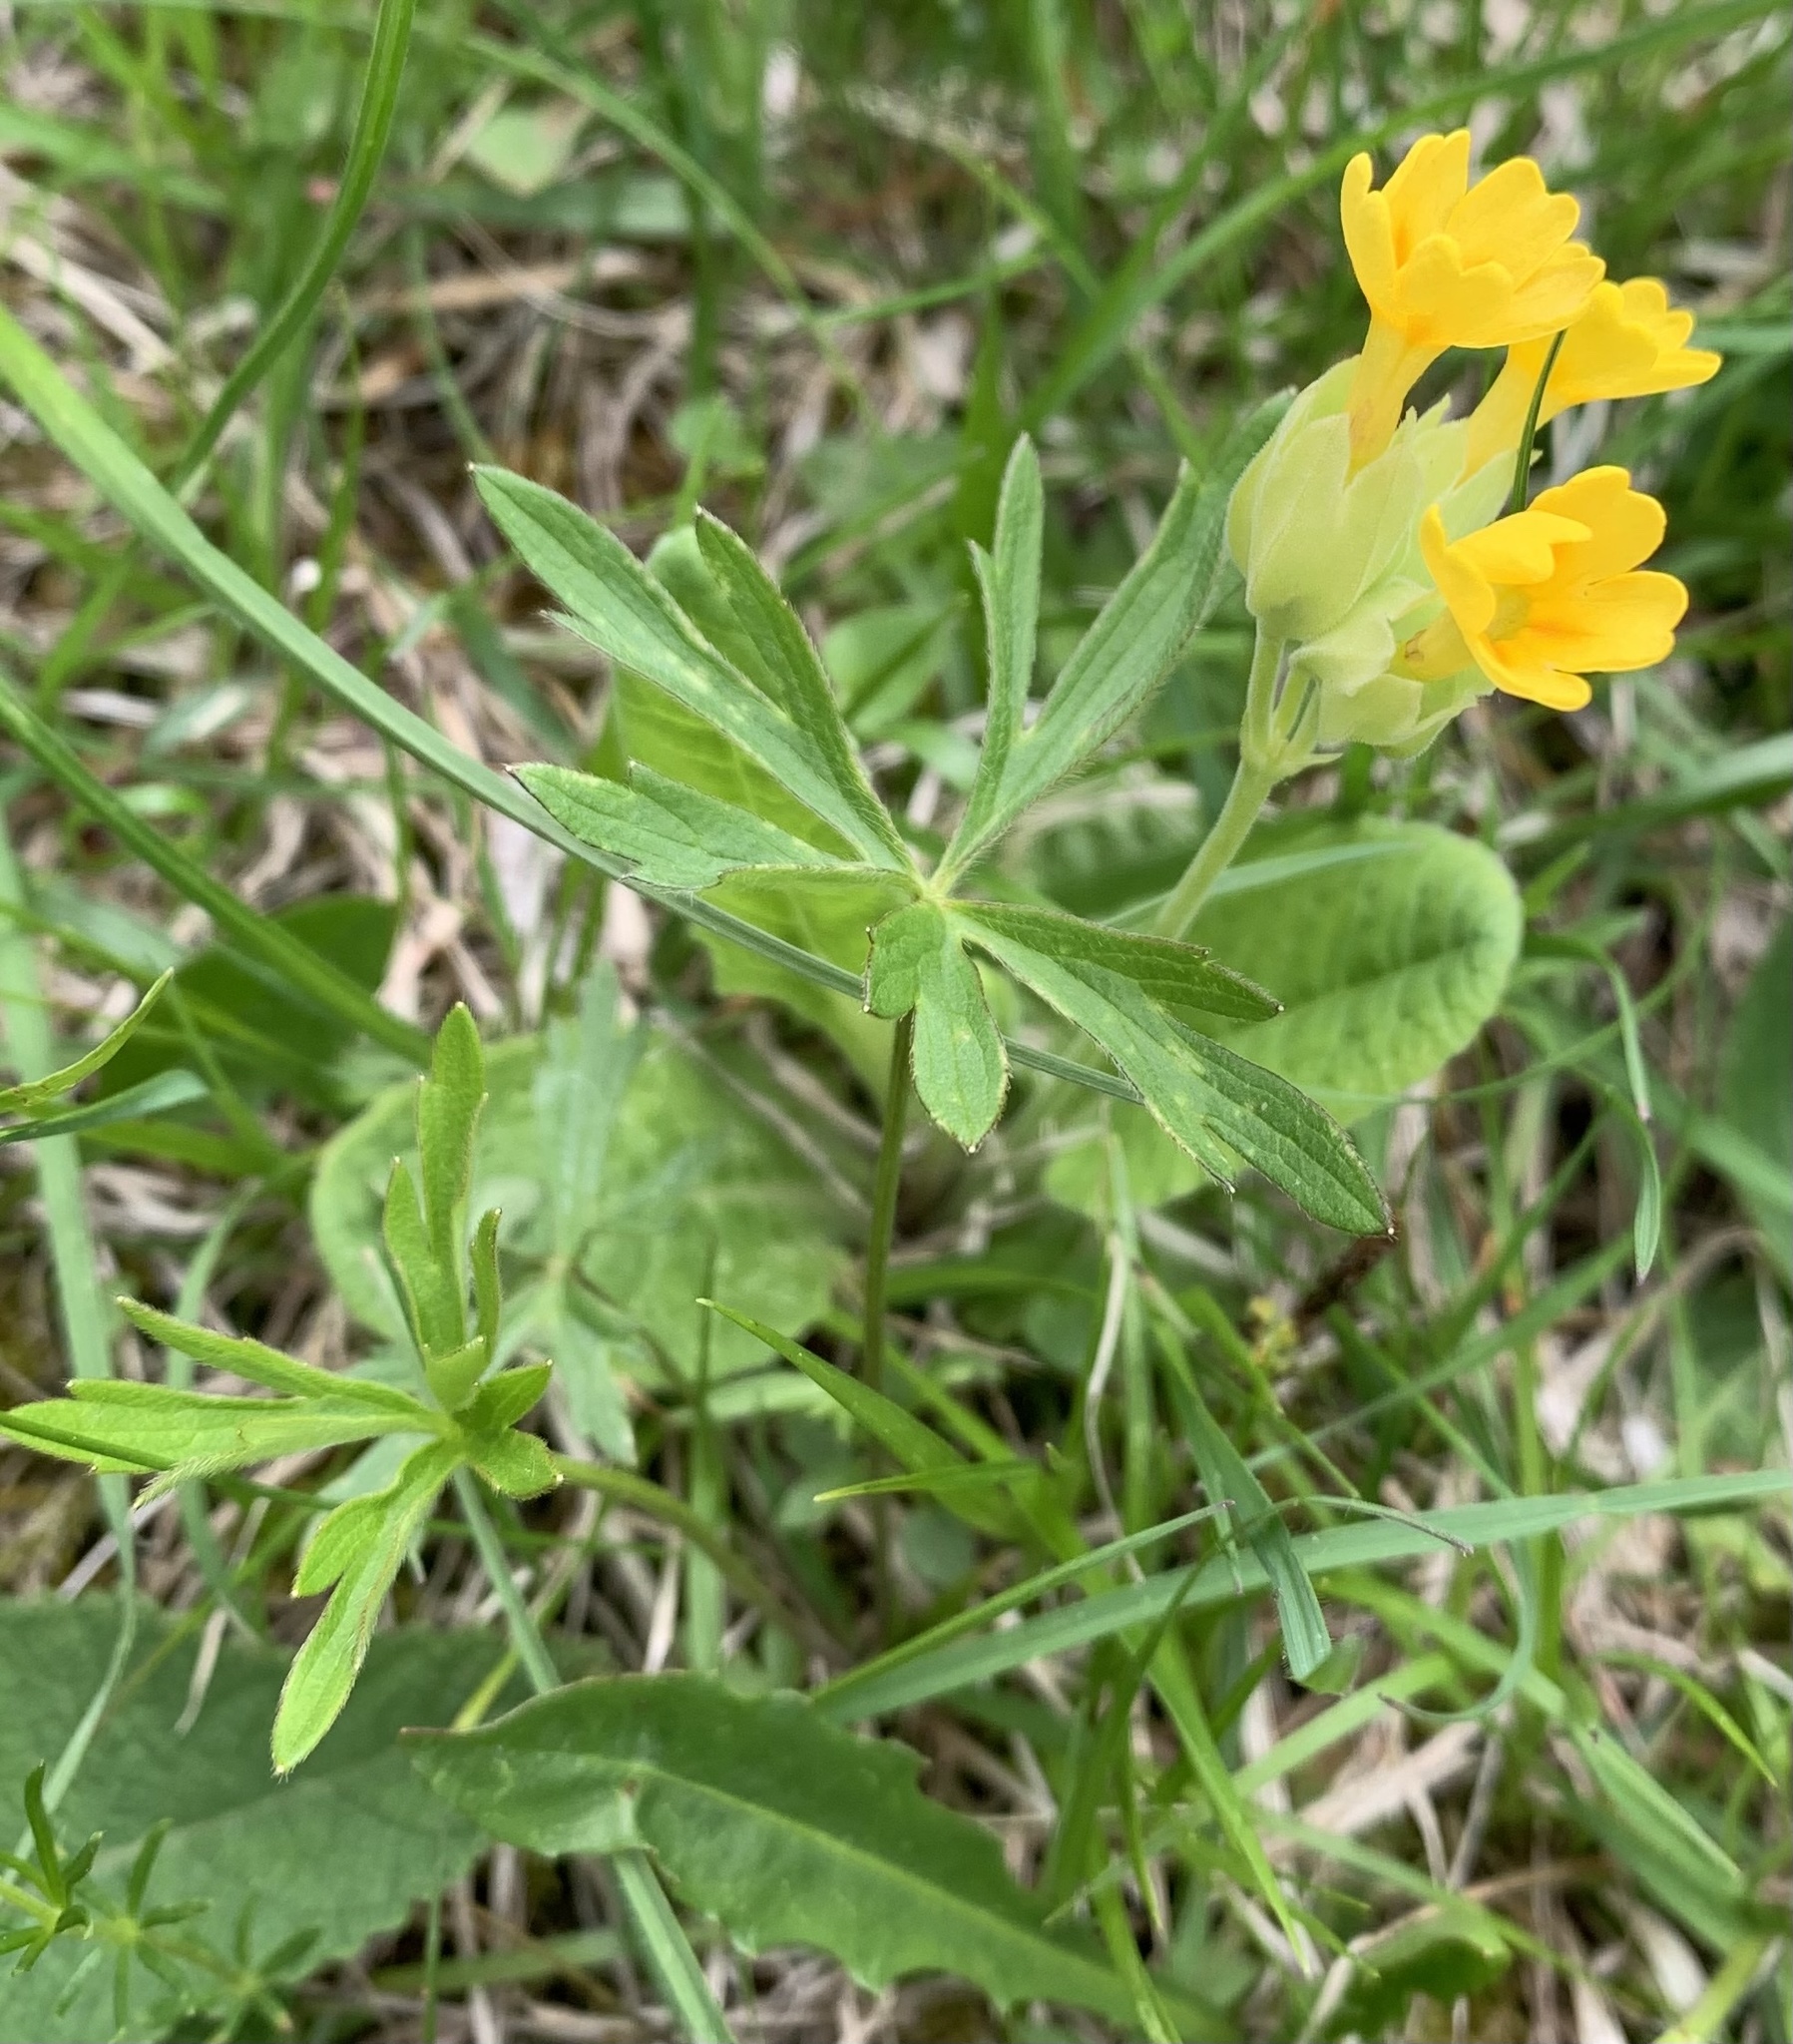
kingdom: Plantae
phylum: Tracheophyta
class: Magnoliopsida
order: Ericales
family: Primulaceae
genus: Primula
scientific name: Primula veris
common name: Cowslip
